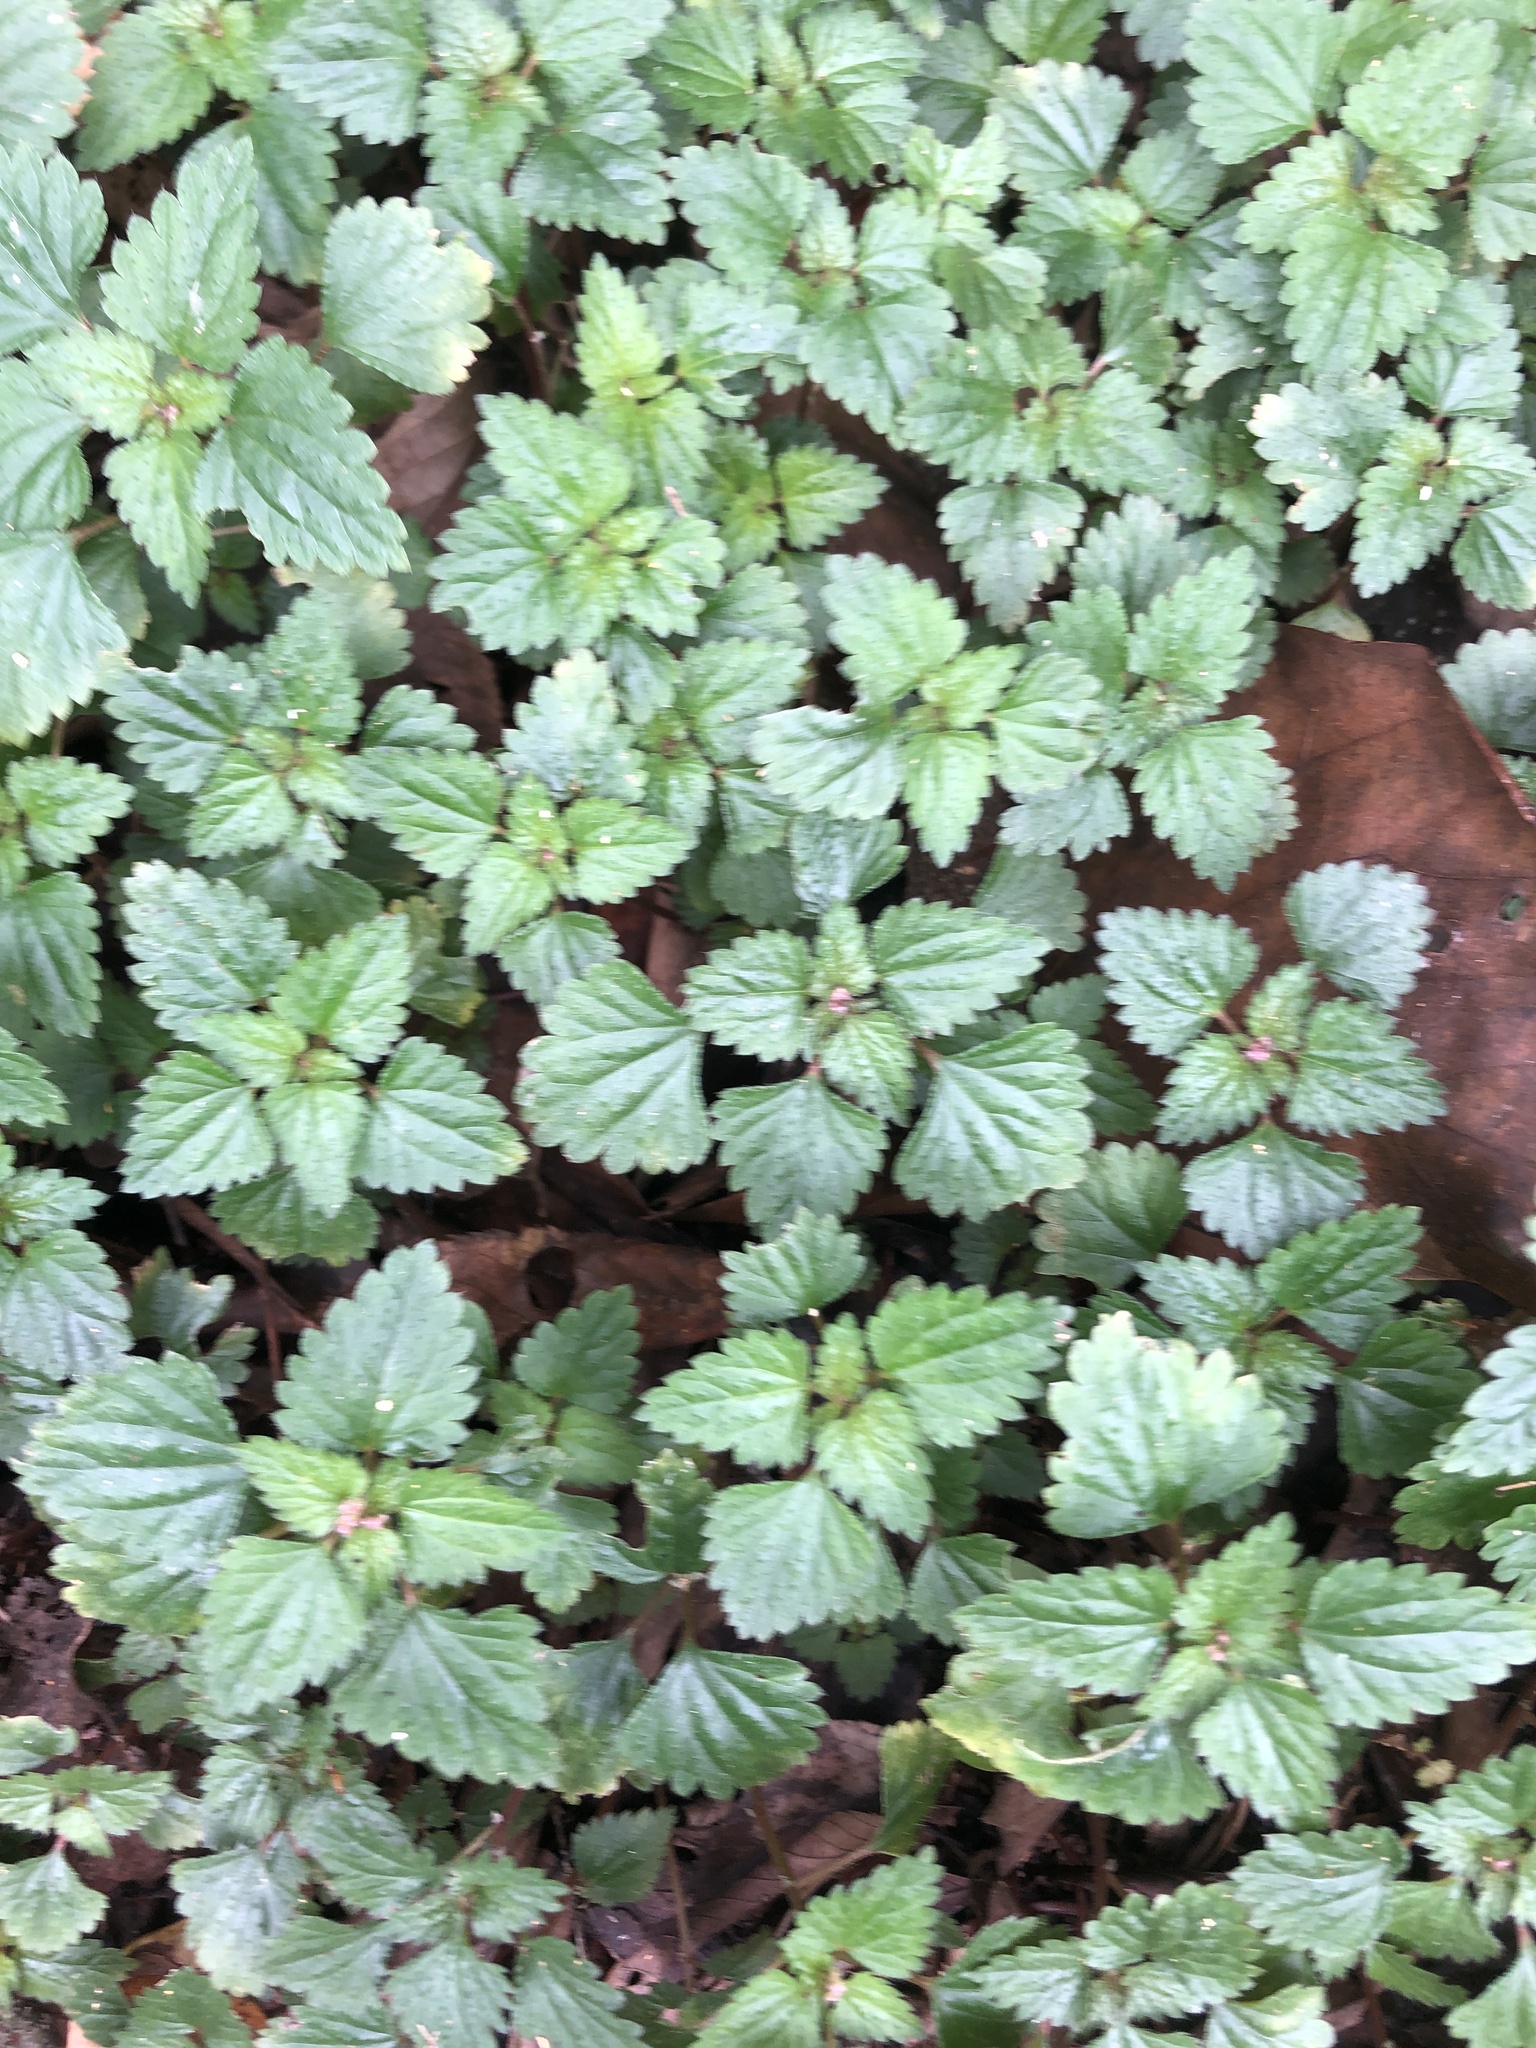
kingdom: Plantae
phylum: Tracheophyta
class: Magnoliopsida
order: Rosales
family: Urticaceae
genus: Nanocnide
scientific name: Nanocnide japonica
